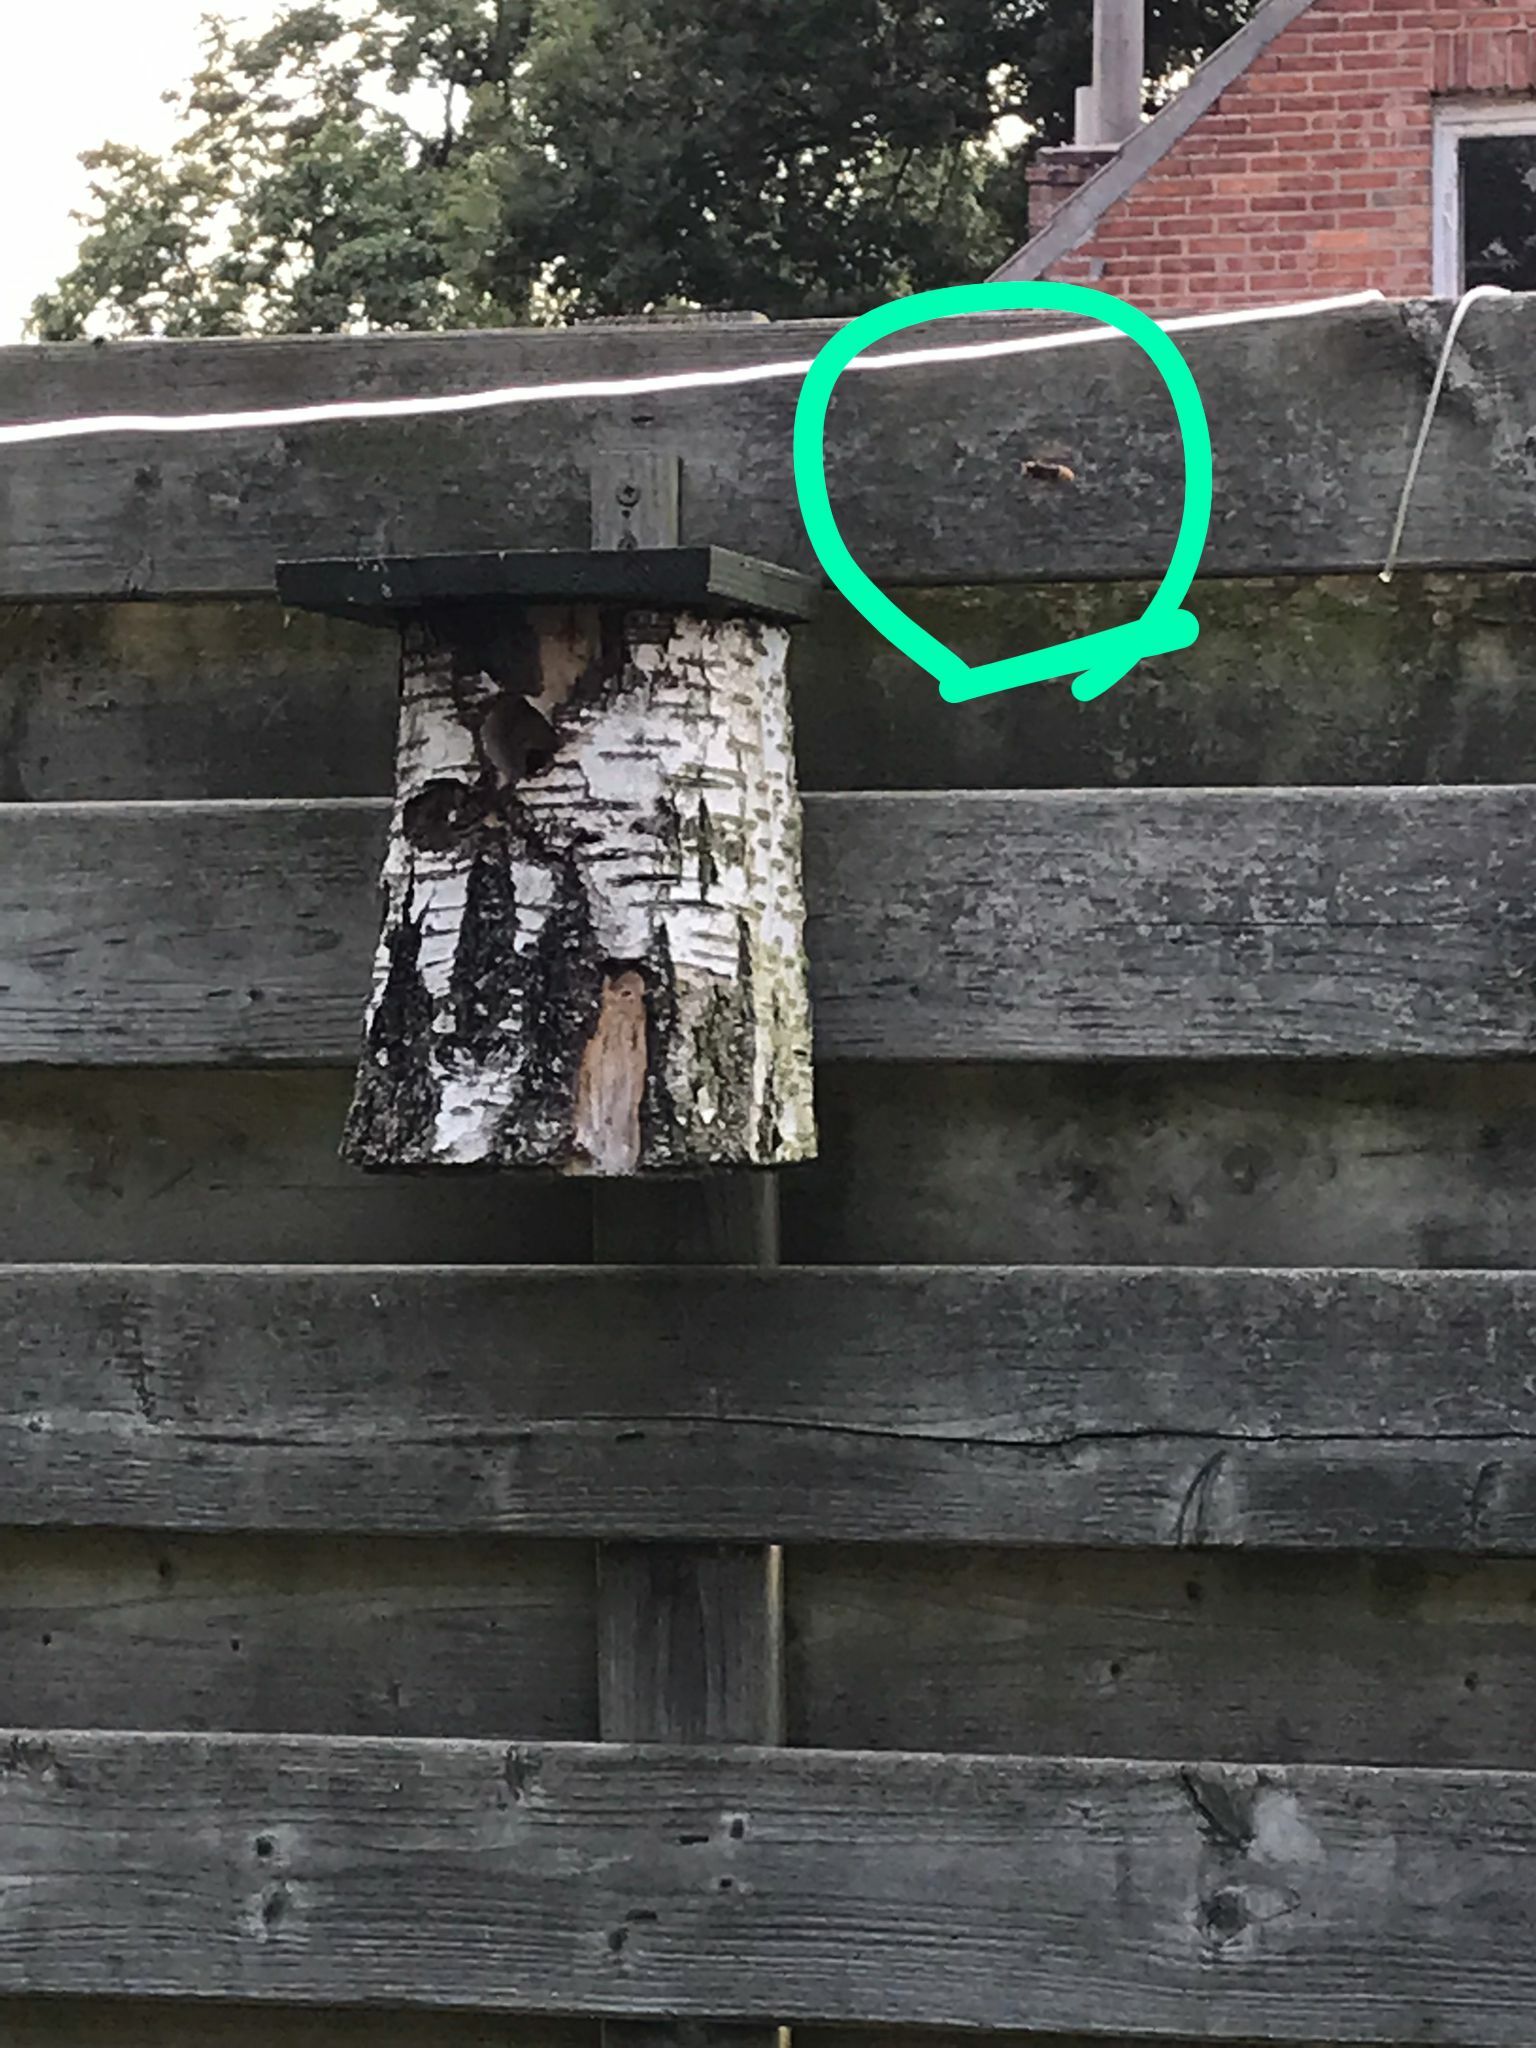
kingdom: Animalia
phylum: Arthropoda
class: Insecta
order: Hymenoptera
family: Vespidae
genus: Vespa
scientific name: Vespa crabro
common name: Hornet
